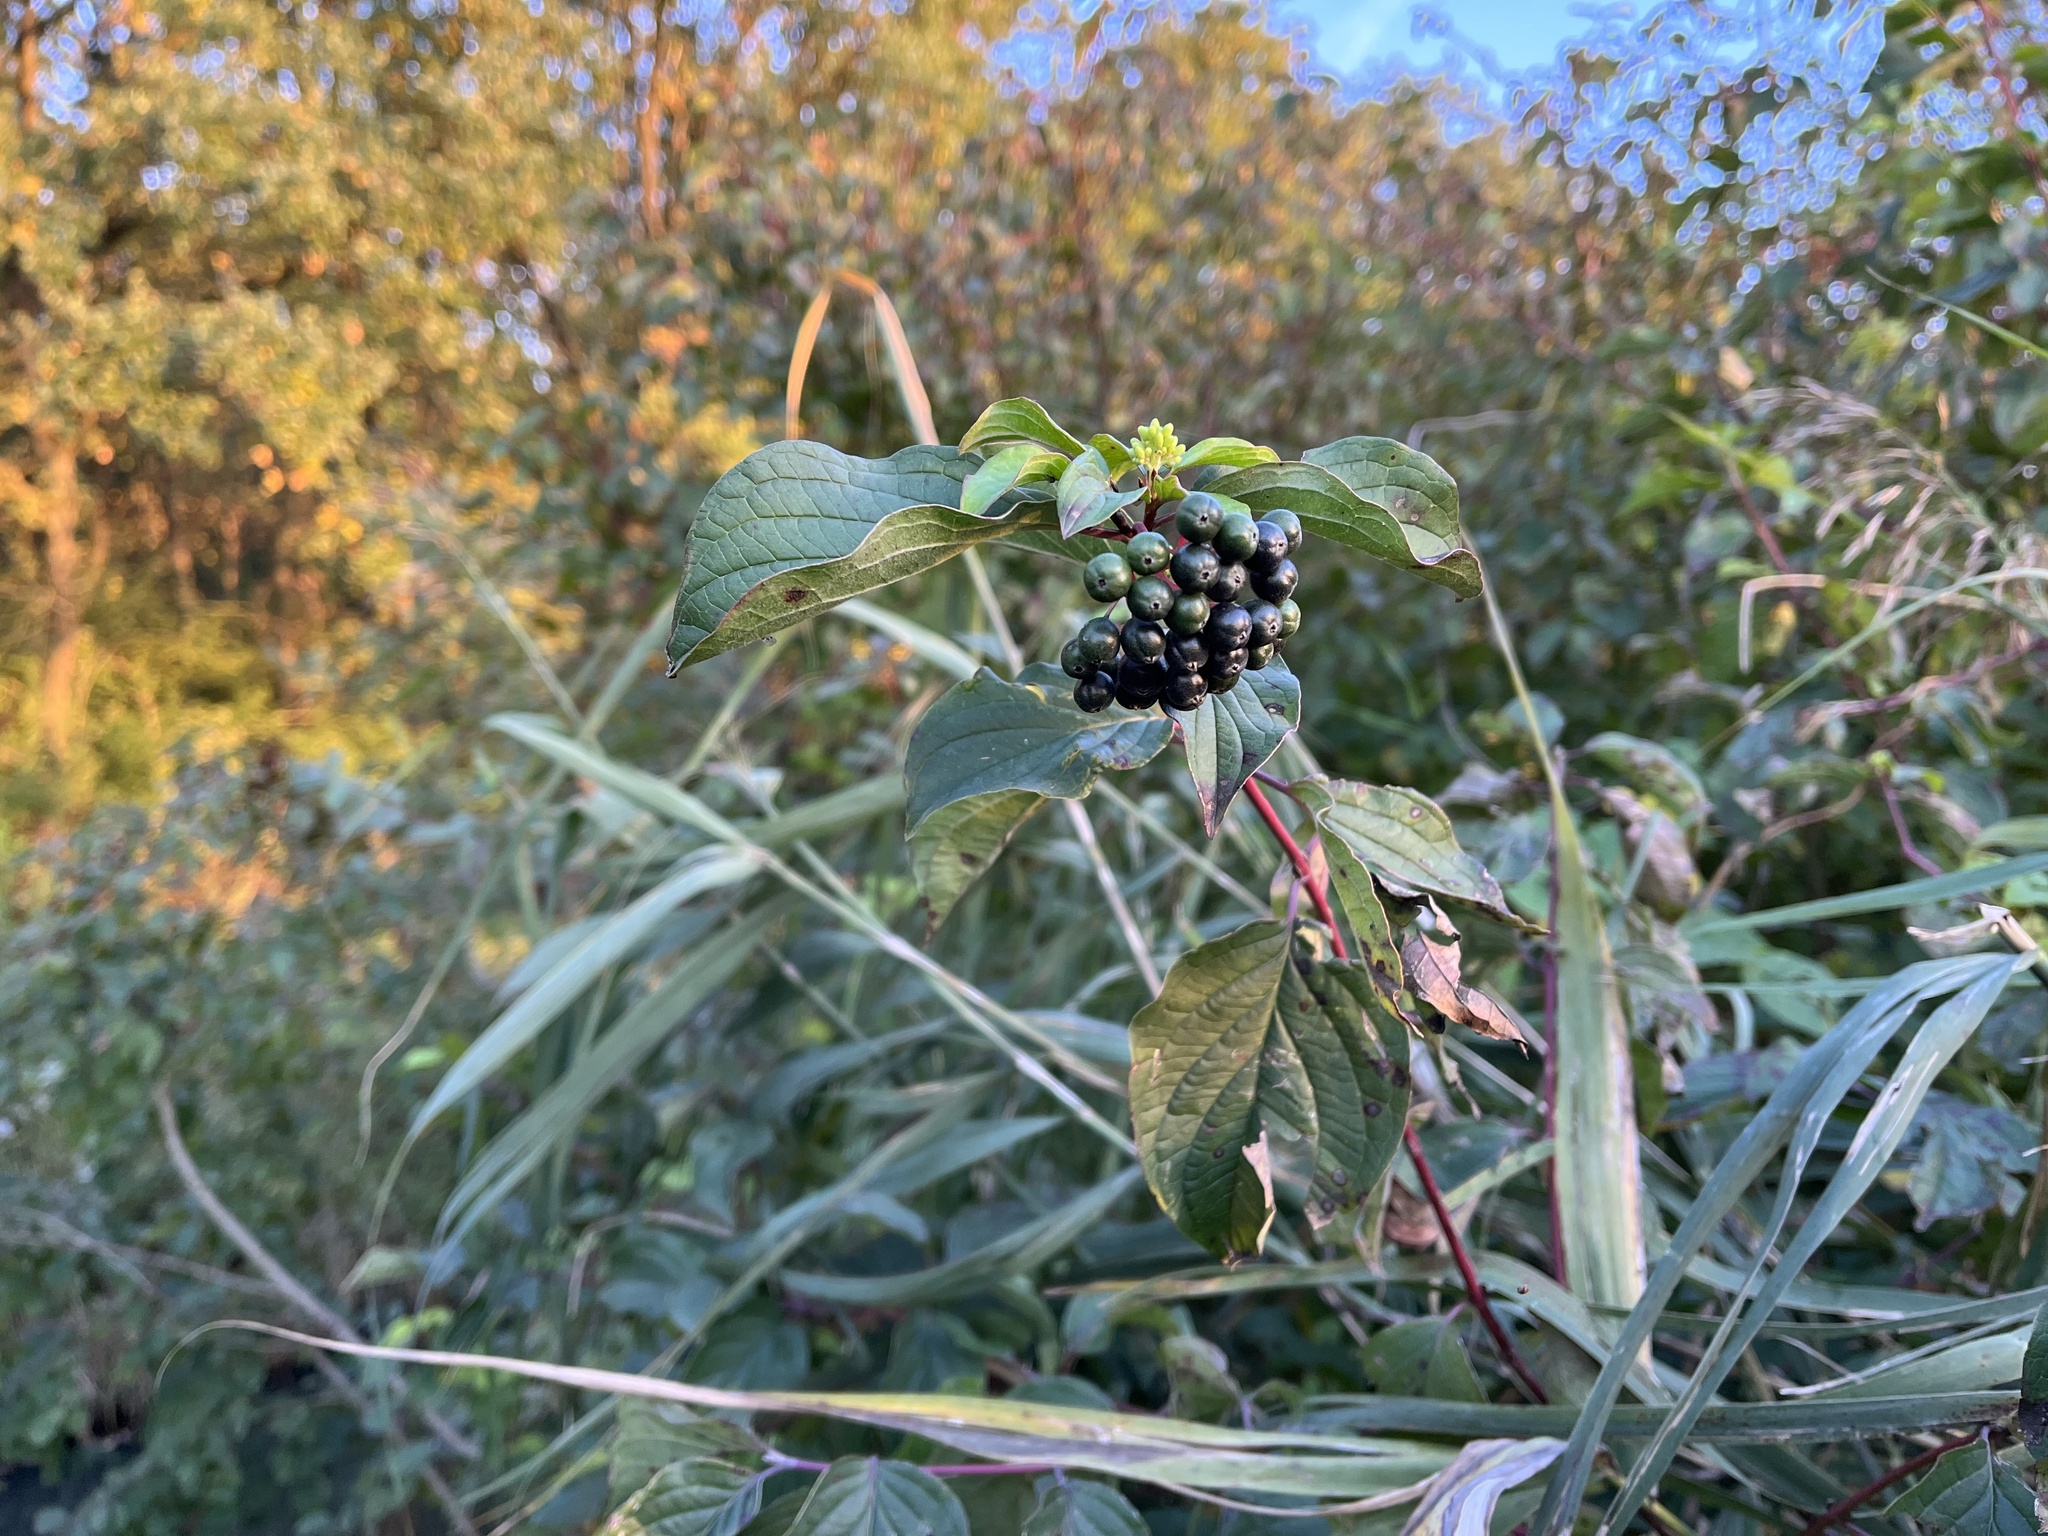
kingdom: Plantae
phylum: Tracheophyta
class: Magnoliopsida
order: Cornales
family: Cornaceae
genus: Cornus
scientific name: Cornus sanguinea
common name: Dogwood
